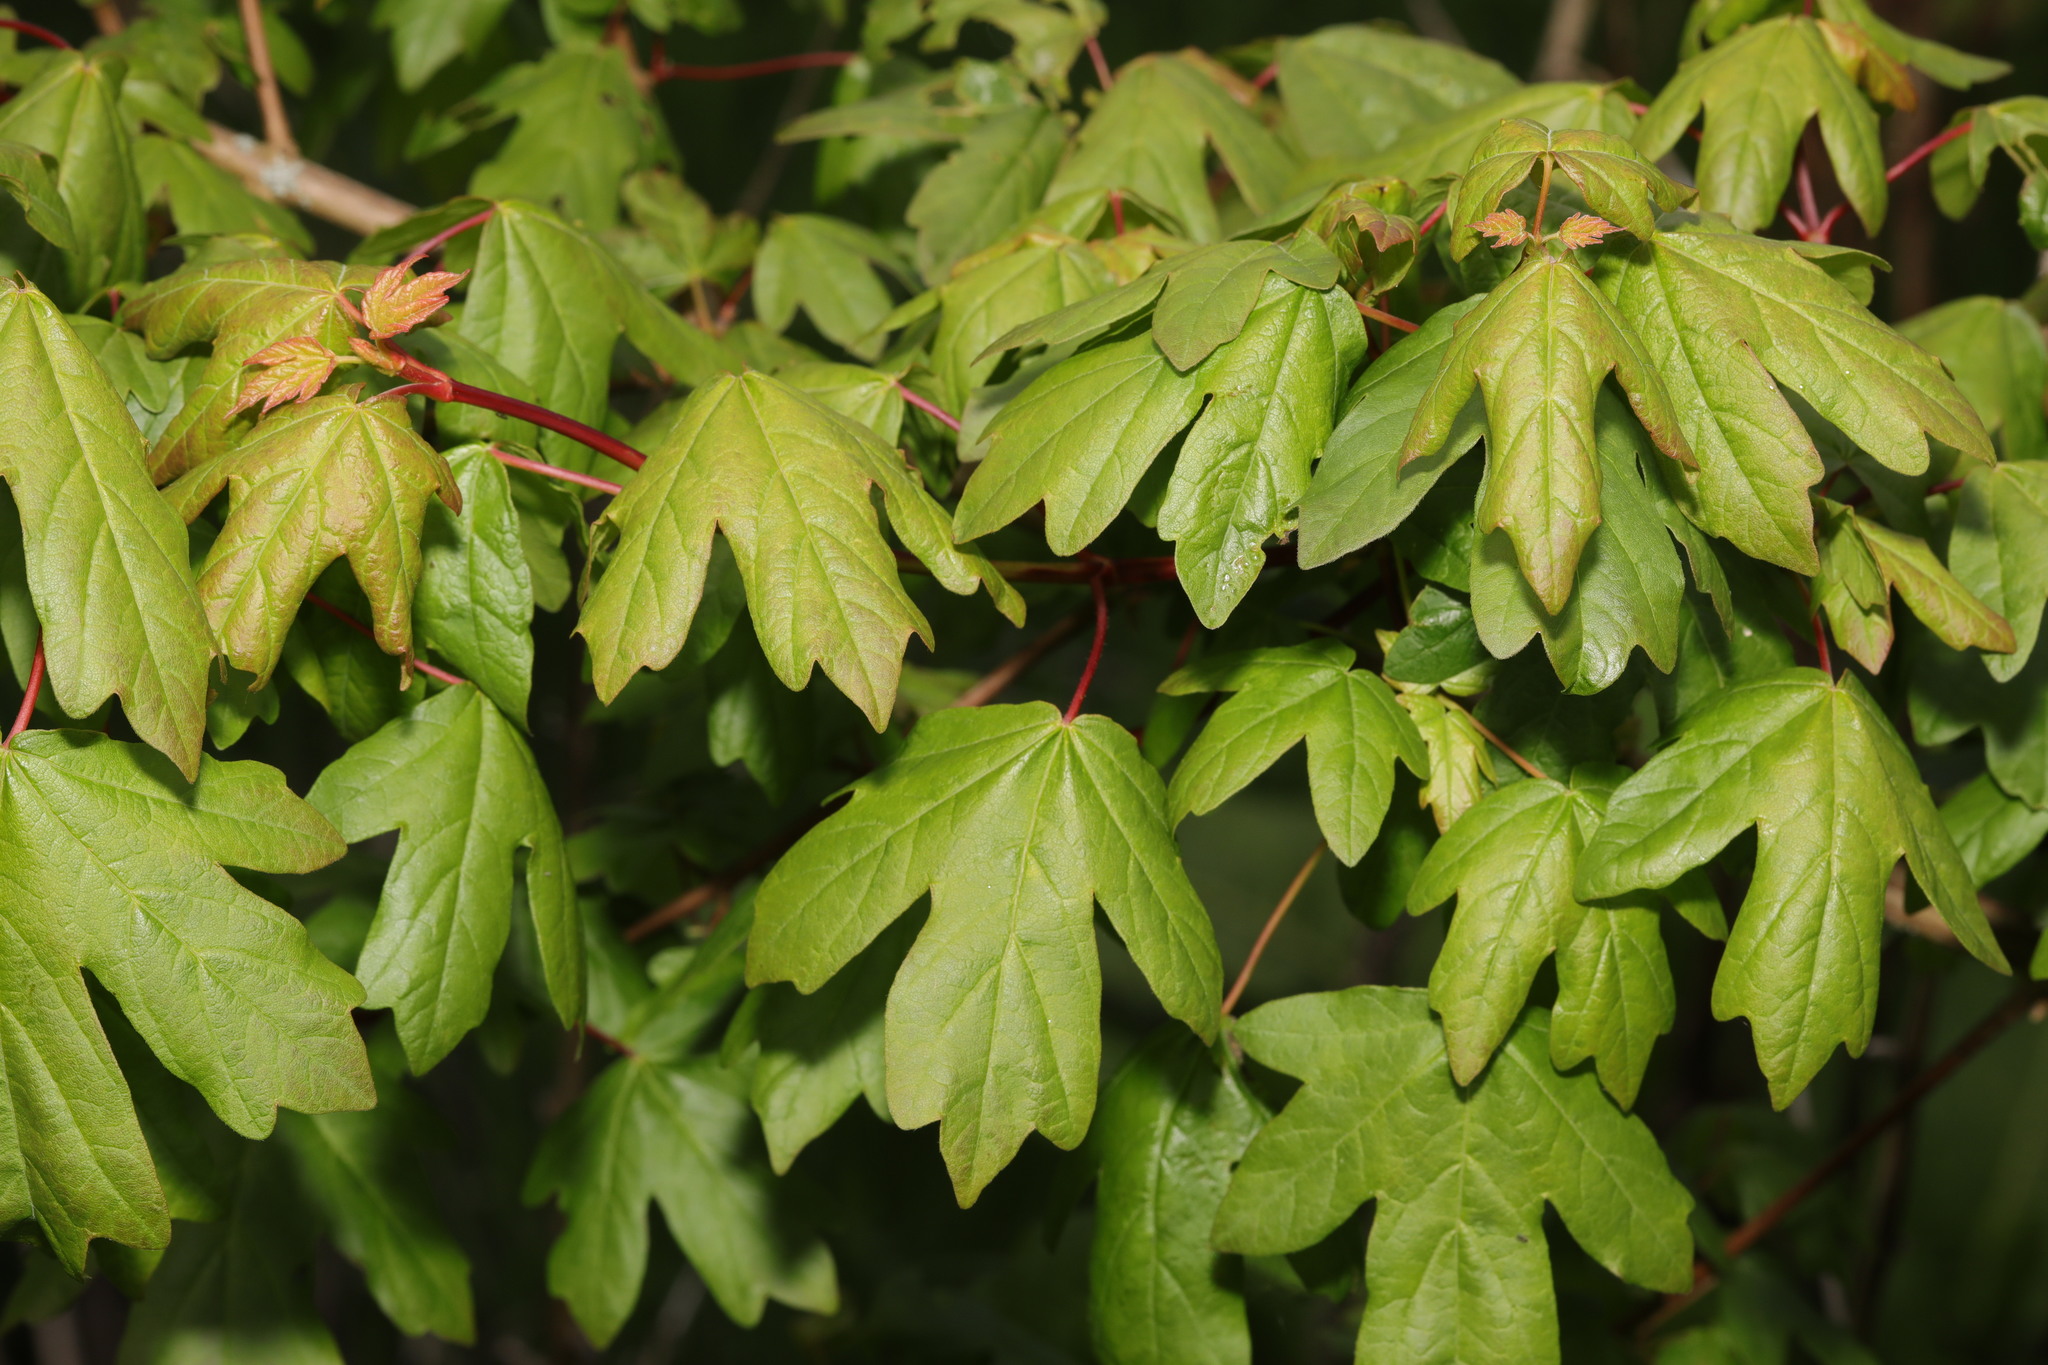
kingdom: Plantae
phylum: Tracheophyta
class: Magnoliopsida
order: Sapindales
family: Sapindaceae
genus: Acer
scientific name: Acer campestre
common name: Field maple
